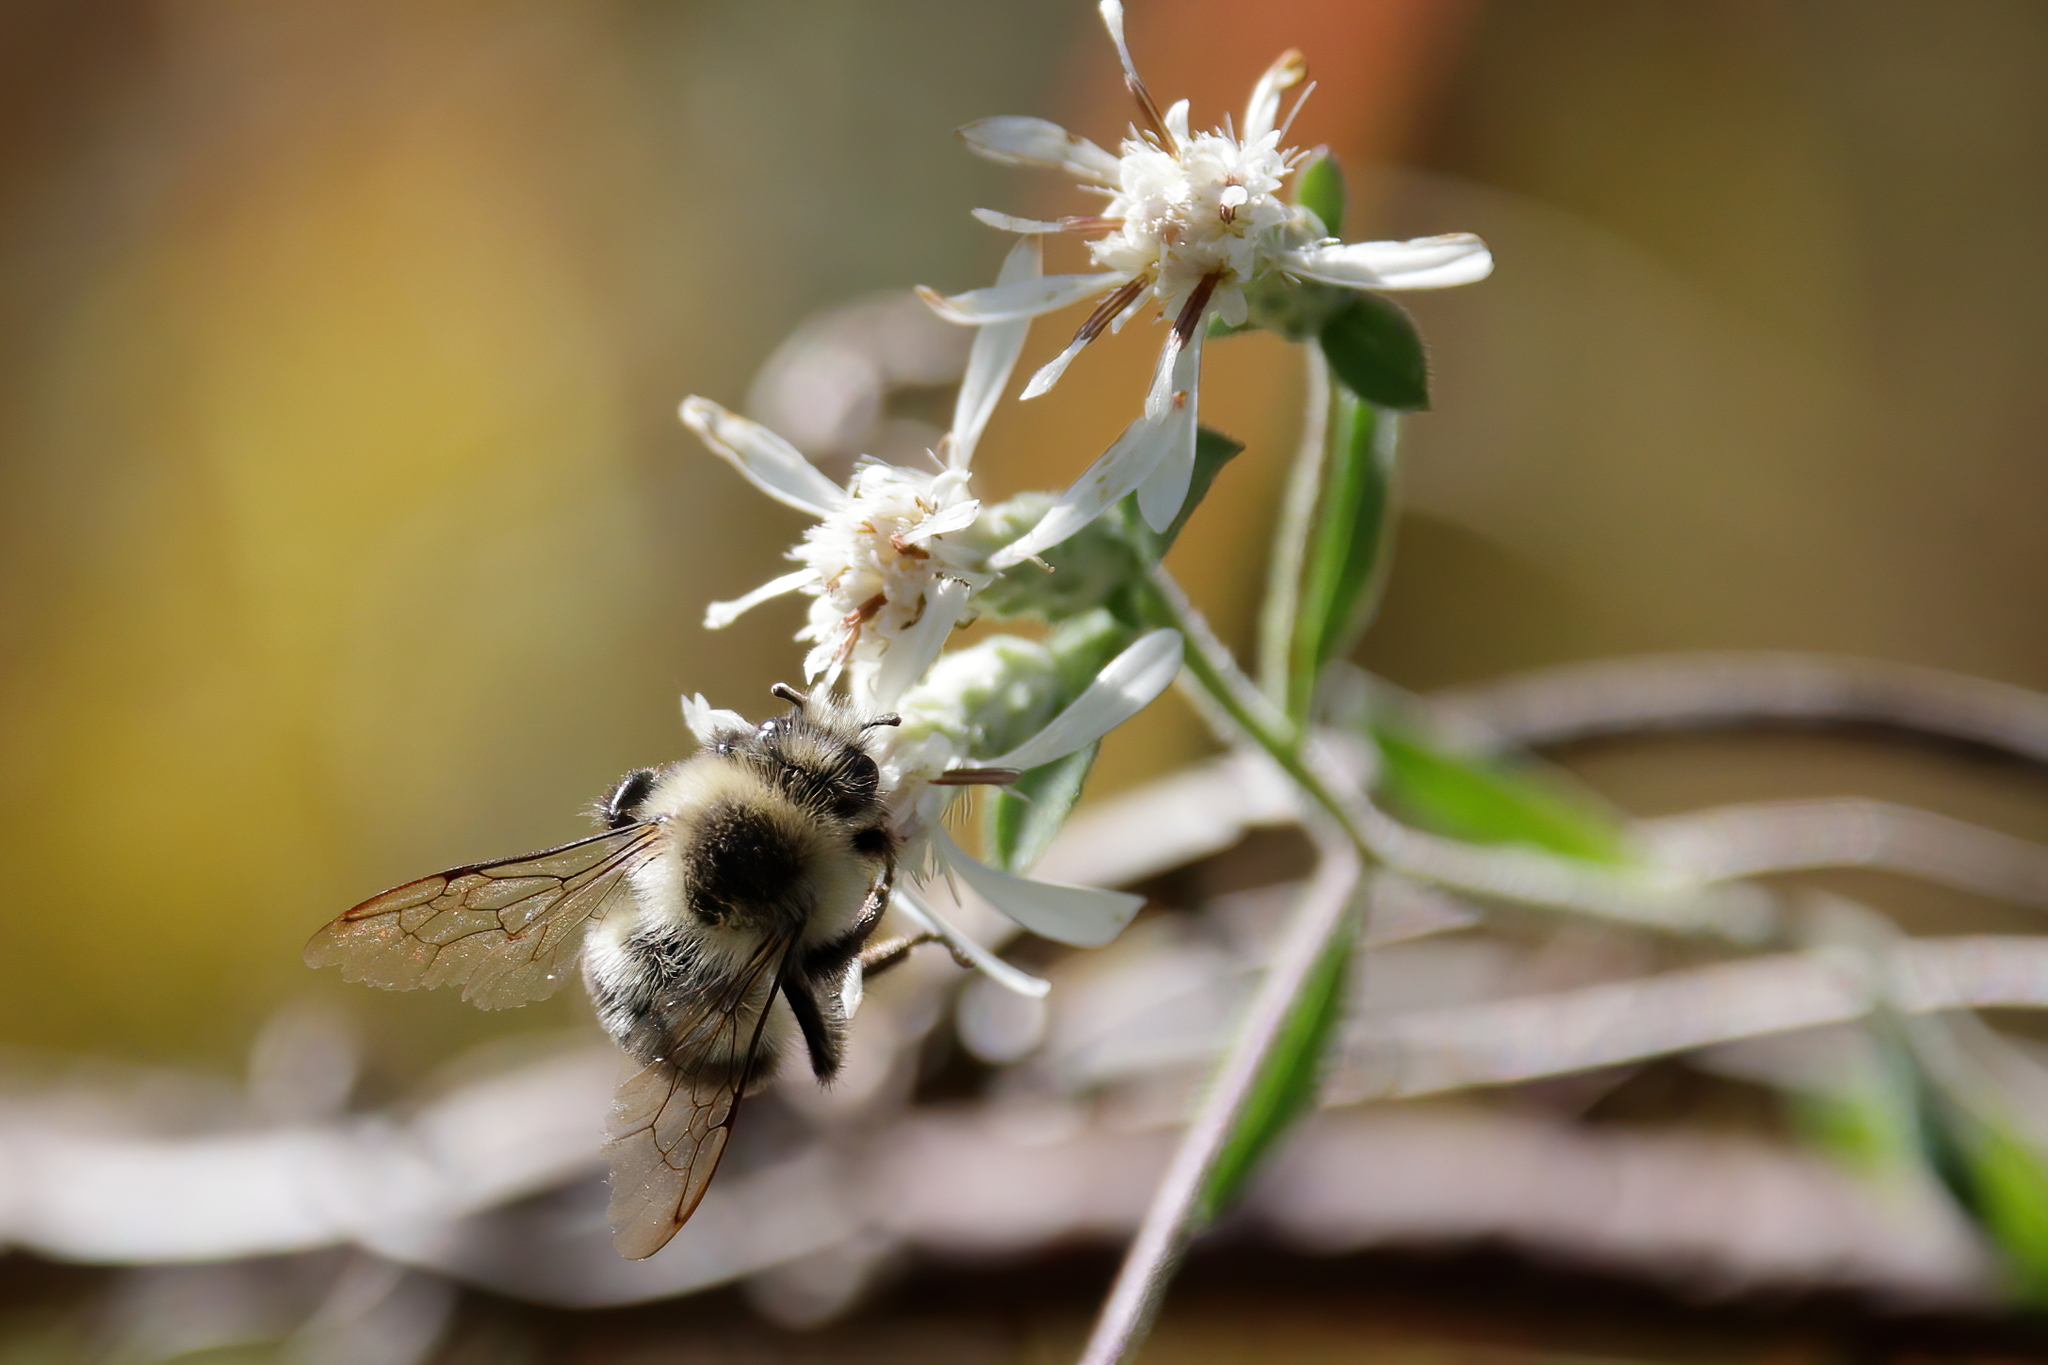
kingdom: Animalia
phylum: Arthropoda
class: Insecta
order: Hymenoptera
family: Apidae
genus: Bombus
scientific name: Bombus impatiens
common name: Common eastern bumble bee
